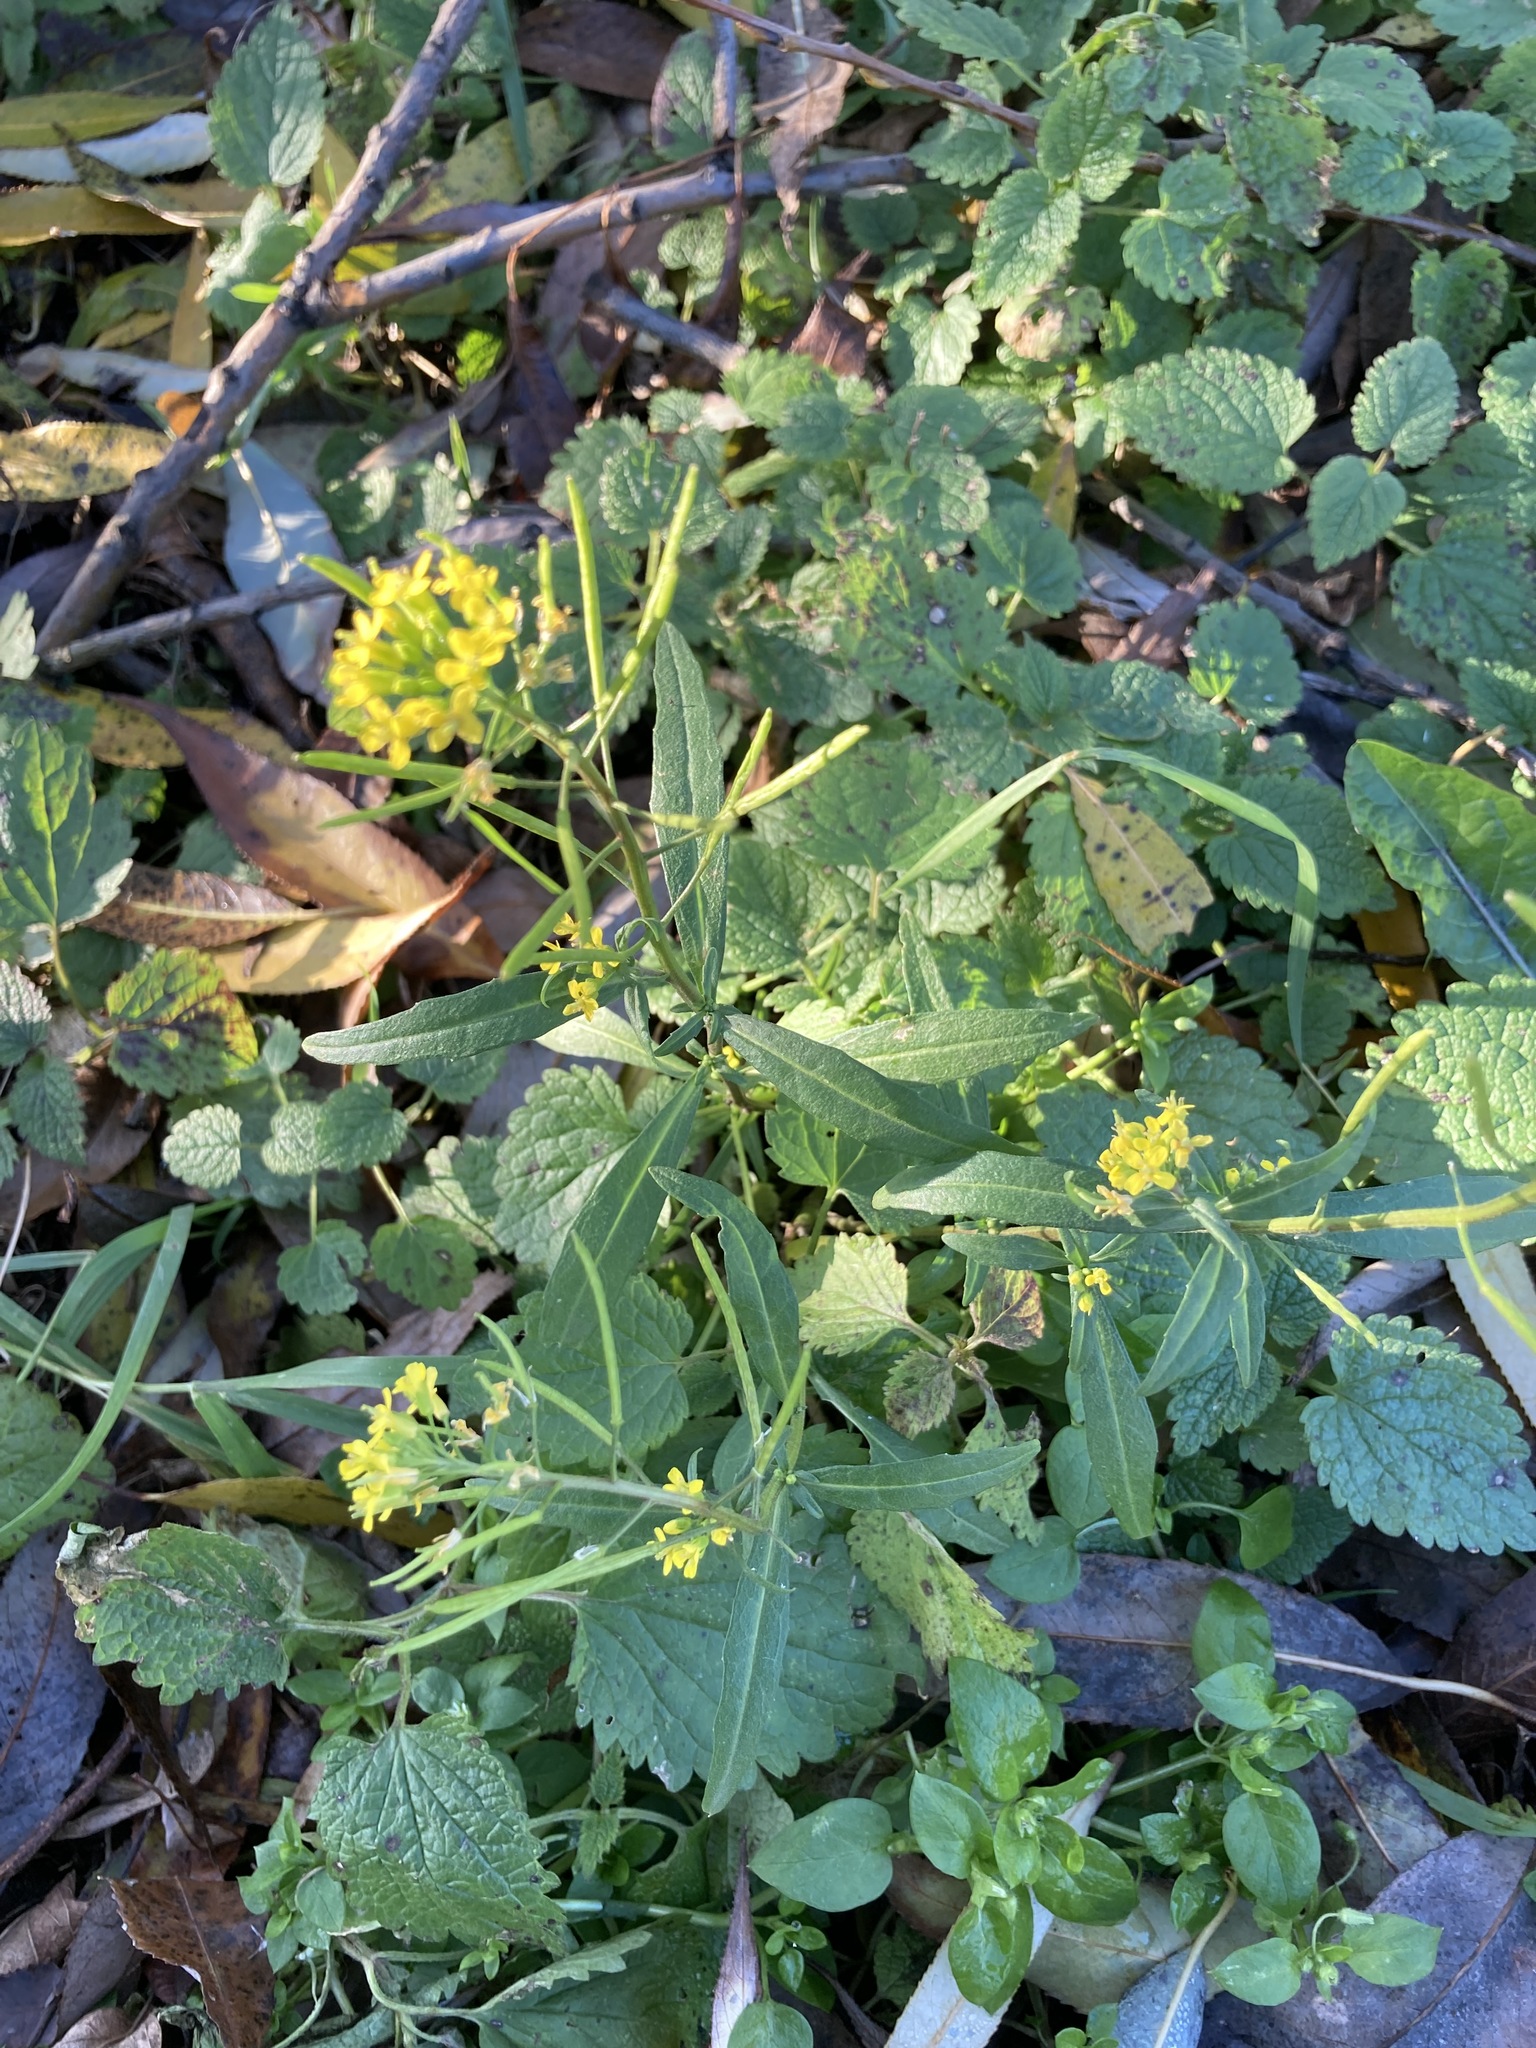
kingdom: Plantae
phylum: Tracheophyta
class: Magnoliopsida
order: Brassicales
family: Brassicaceae
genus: Erysimum
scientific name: Erysimum cheiranthoides
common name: Treacle mustard
